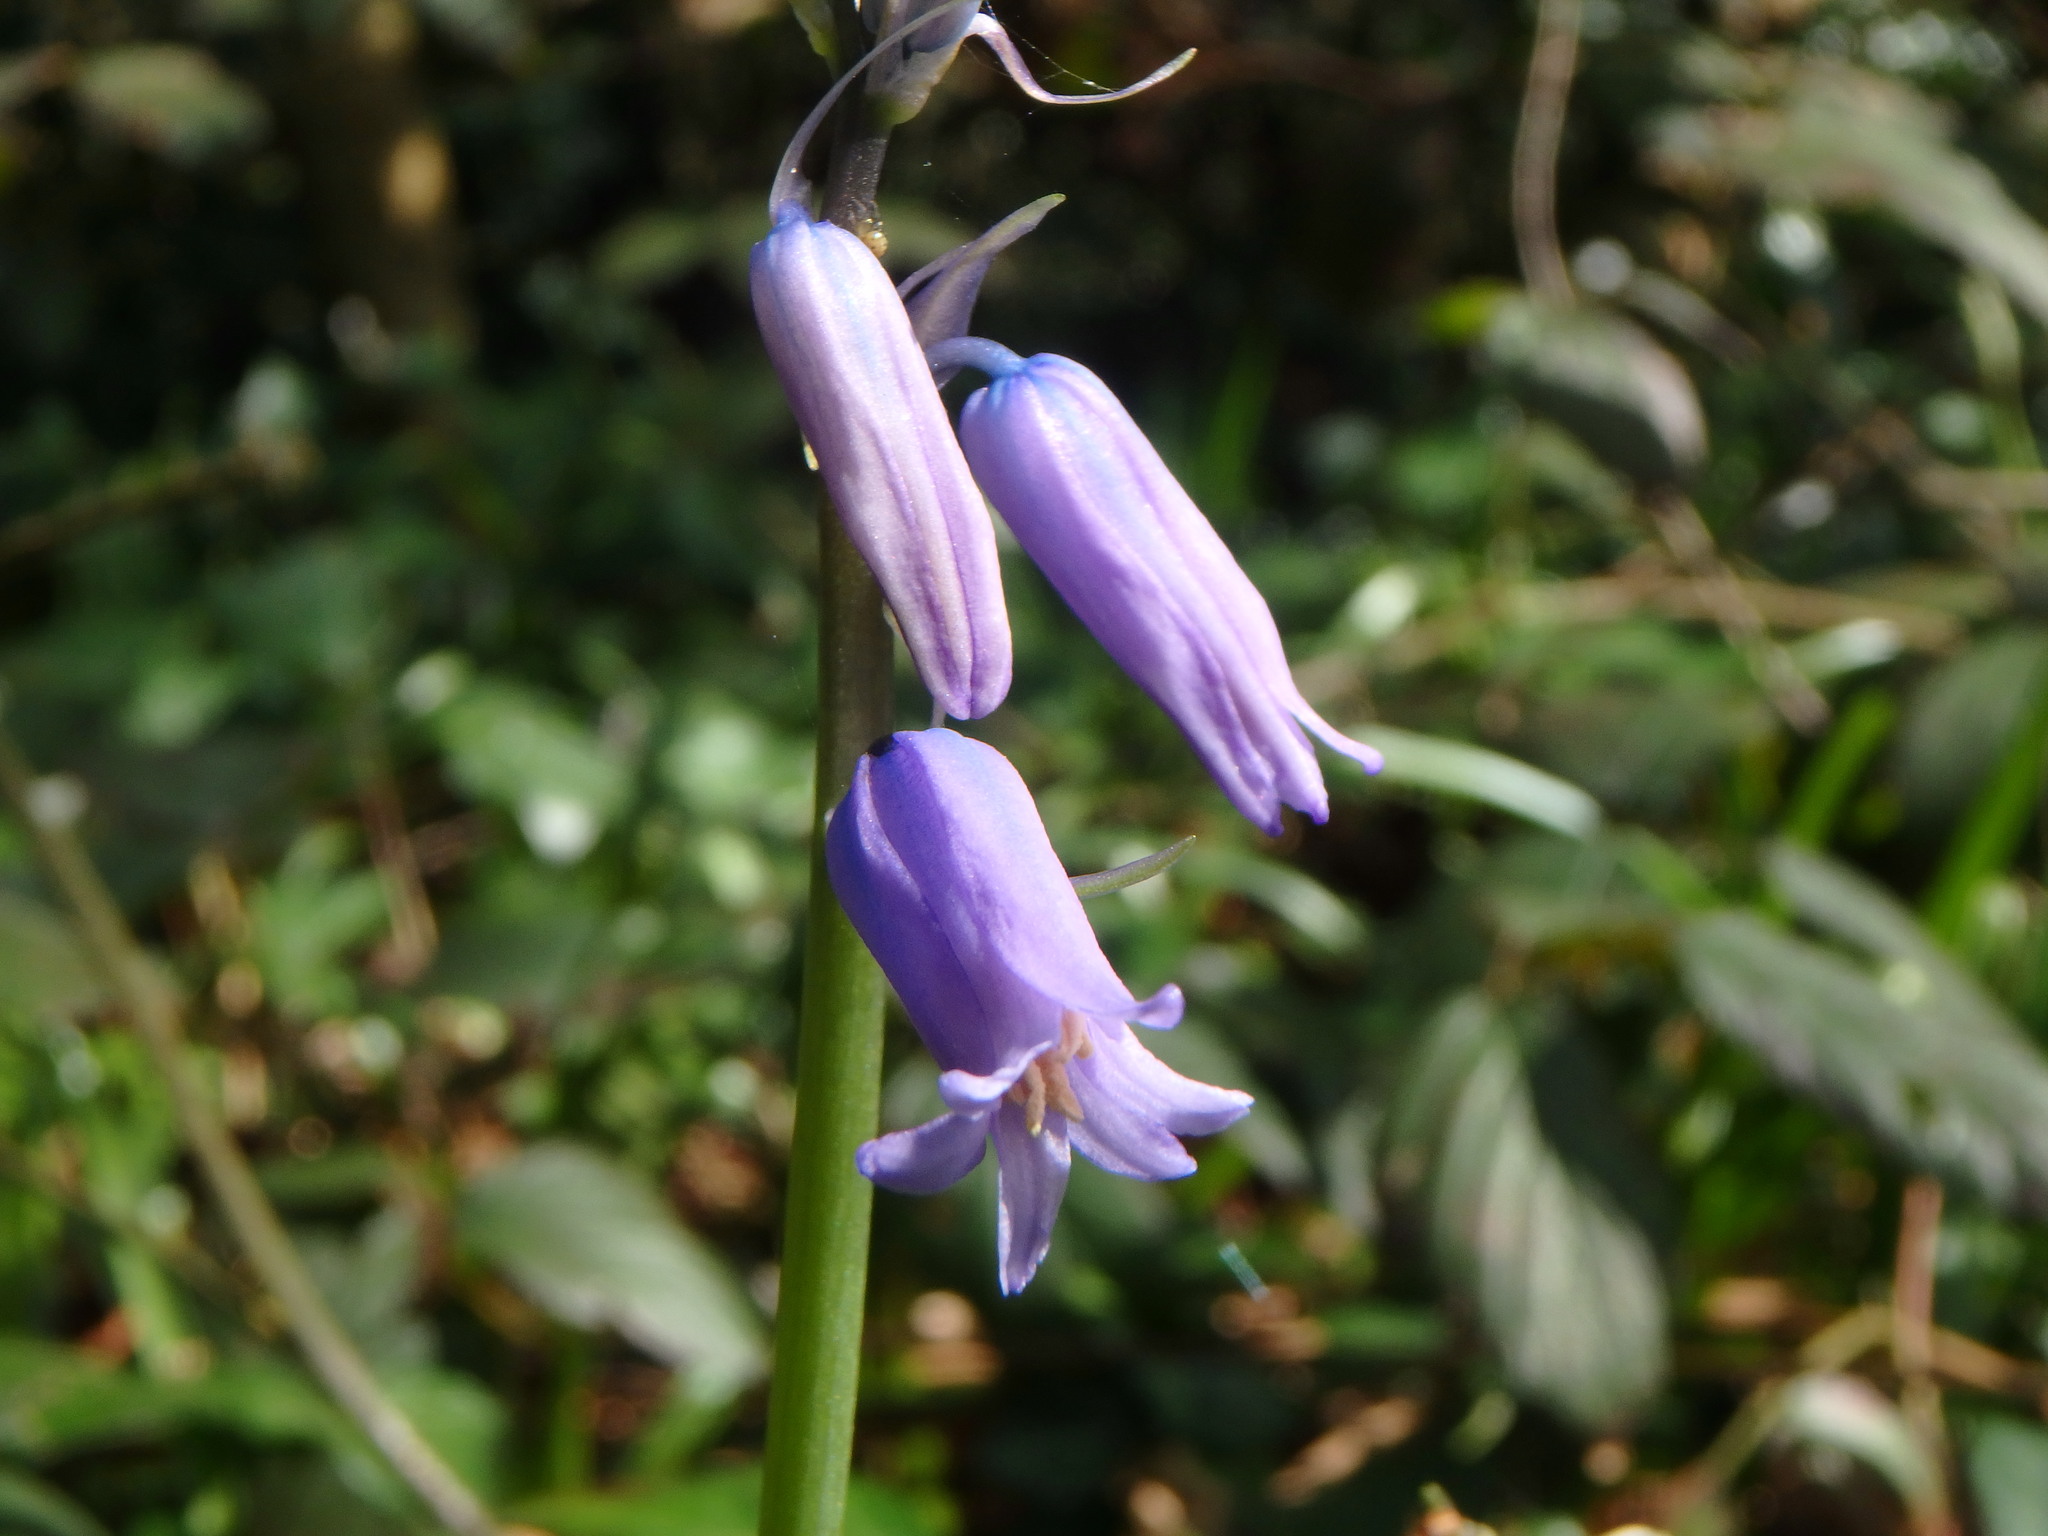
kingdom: Plantae
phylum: Tracheophyta
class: Liliopsida
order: Asparagales
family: Asparagaceae
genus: Hyacinthoides
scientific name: Hyacinthoides non-scripta
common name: Bluebell
